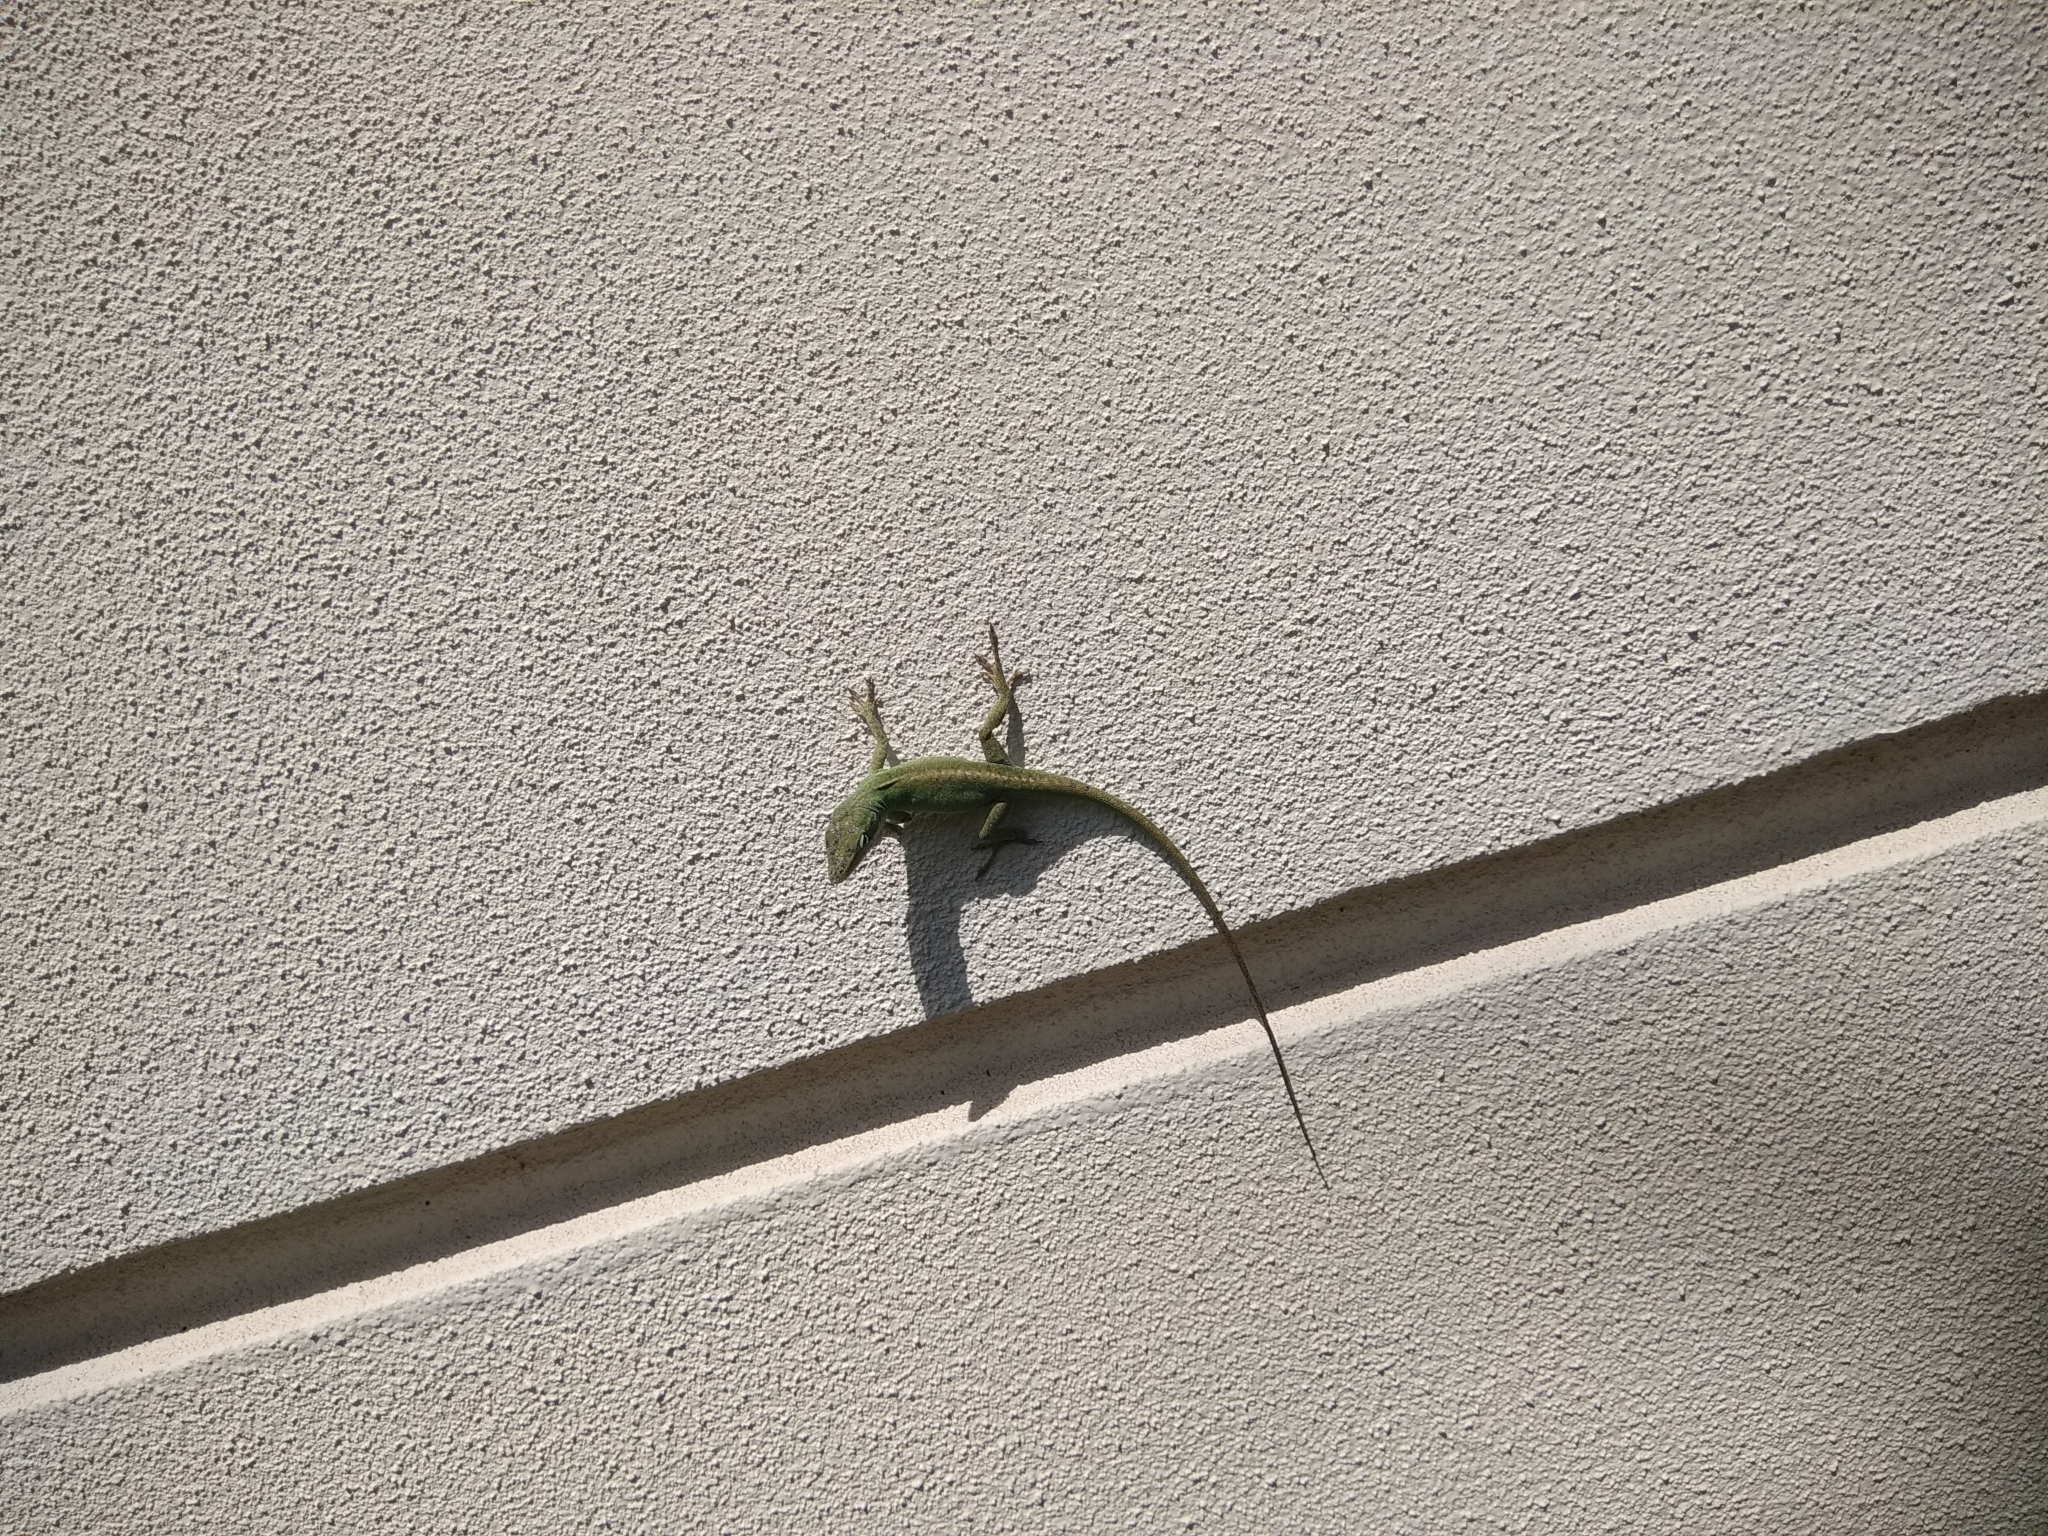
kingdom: Animalia
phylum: Chordata
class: Squamata
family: Dactyloidae
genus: Anolis
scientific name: Anolis carolinensis
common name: Green anole
